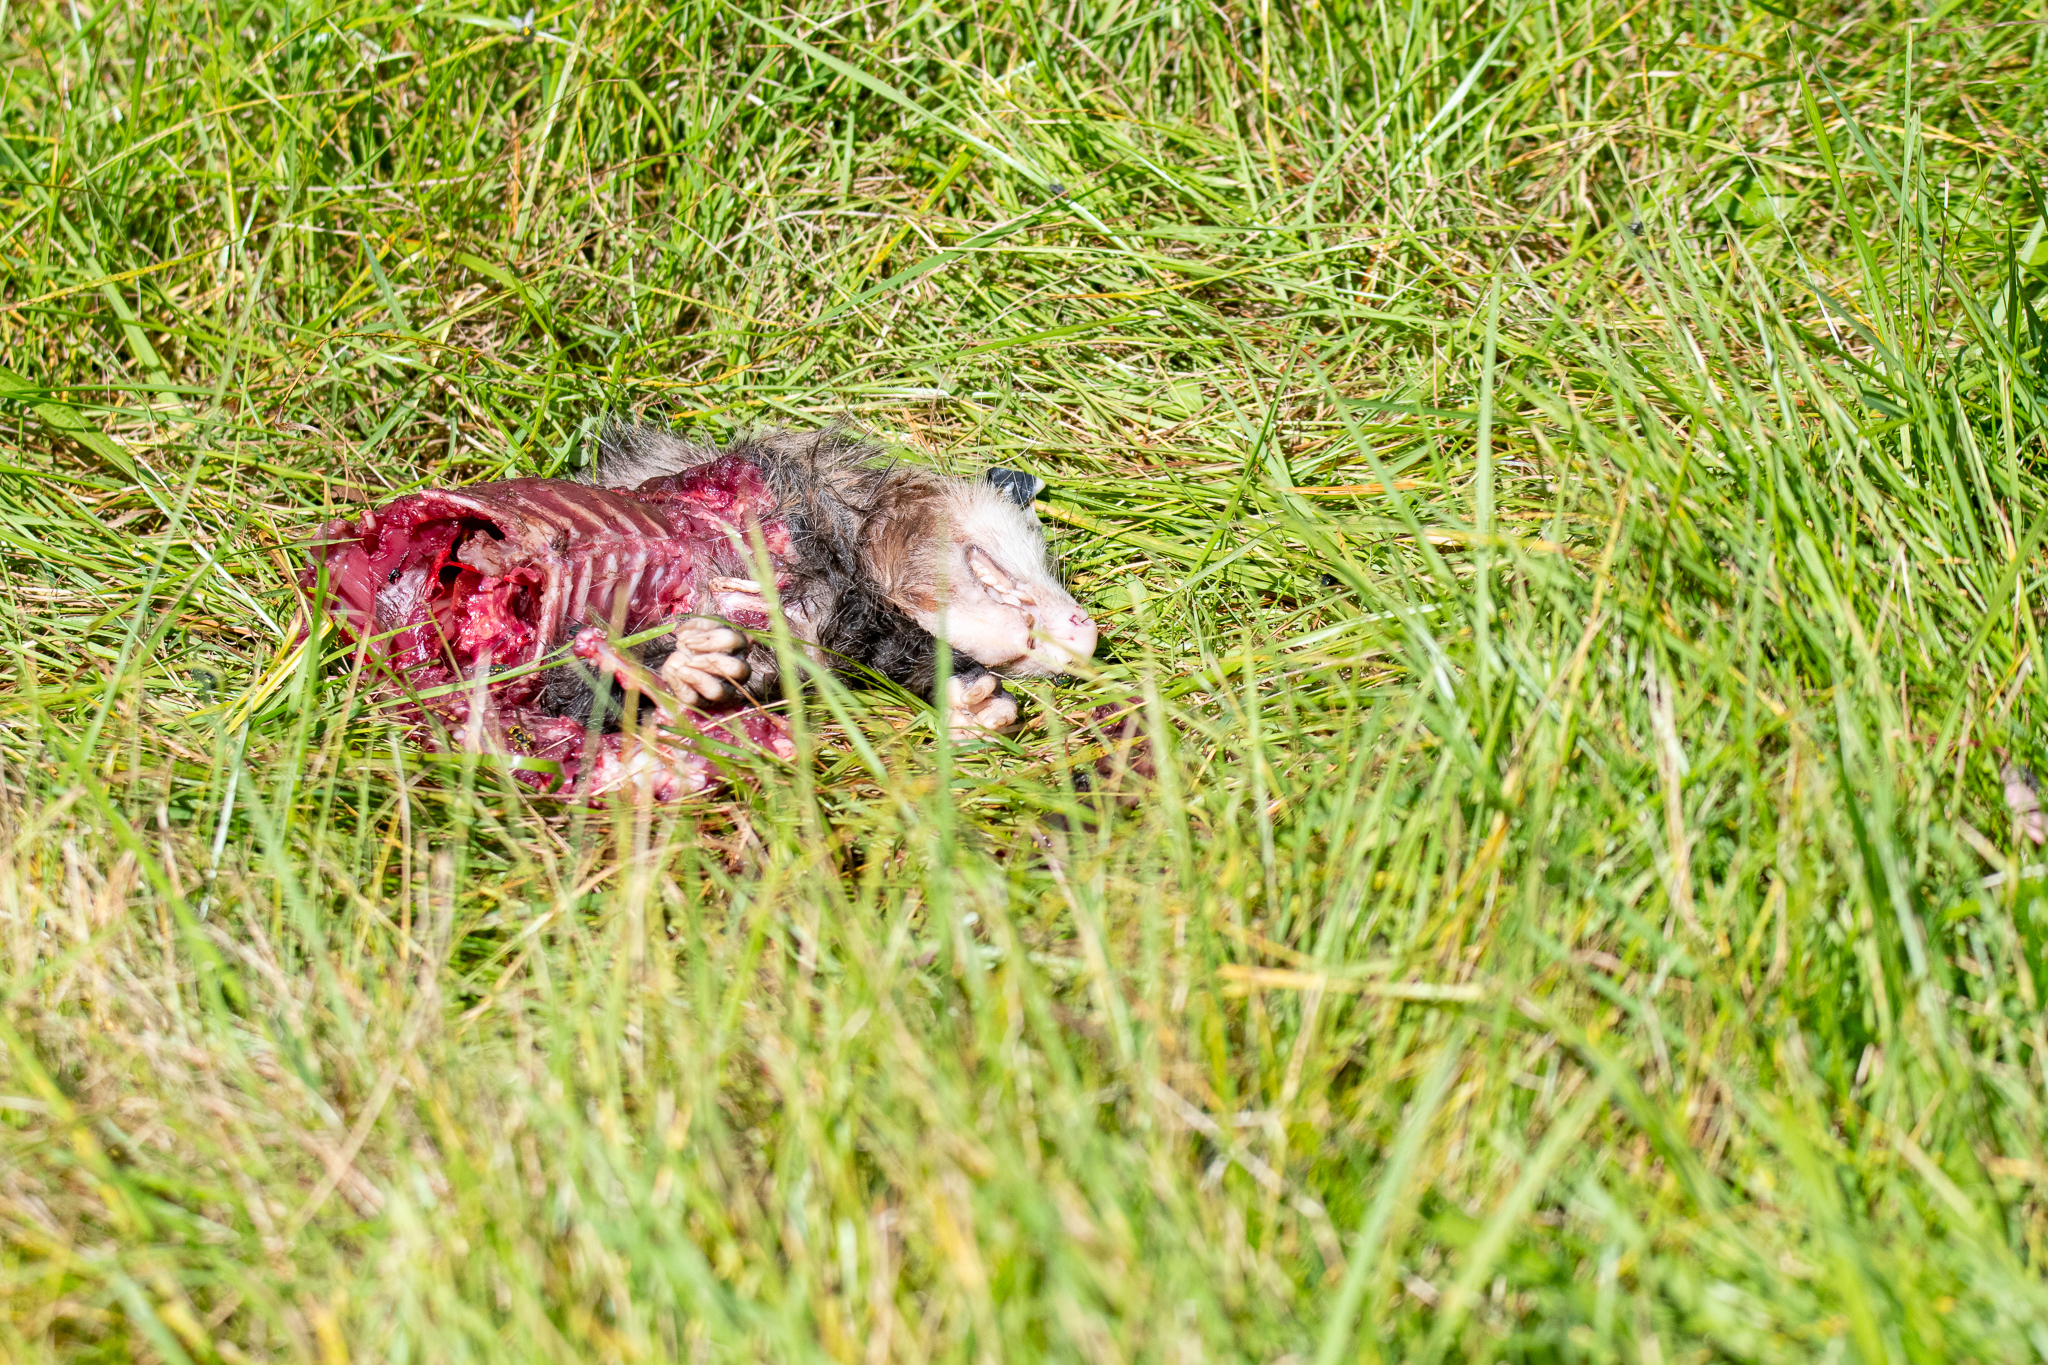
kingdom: Animalia
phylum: Chordata
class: Mammalia
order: Didelphimorphia
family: Didelphidae
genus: Didelphis
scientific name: Didelphis virginiana
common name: Virginia opossum
